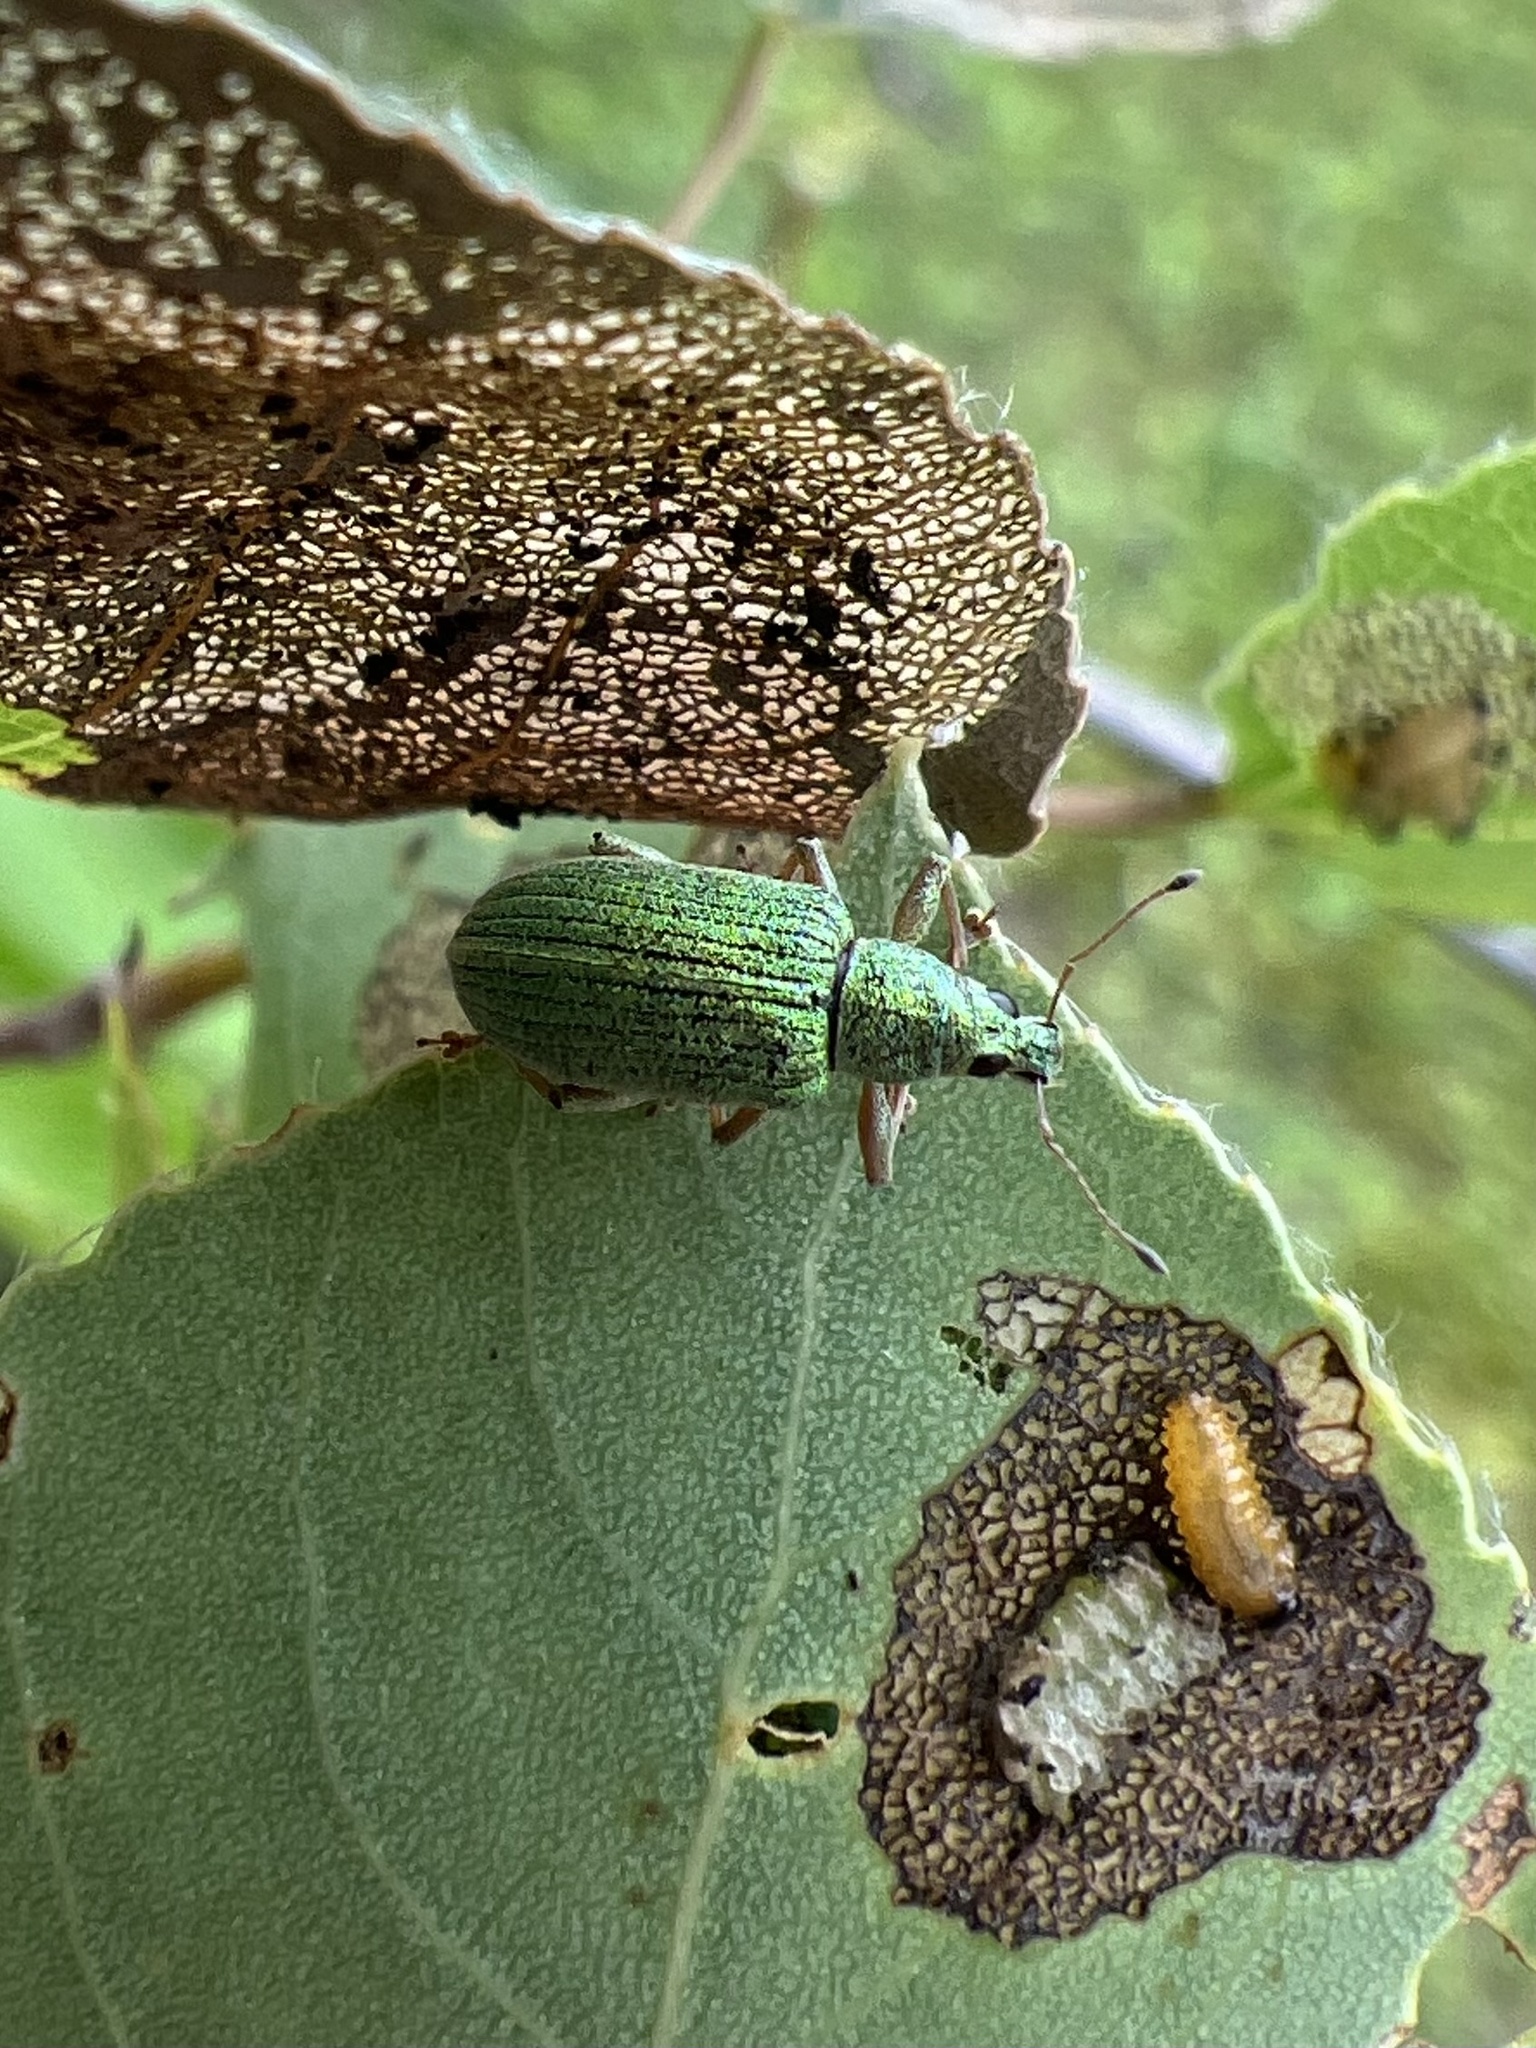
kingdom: Animalia
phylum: Arthropoda
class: Insecta
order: Coleoptera
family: Curculionidae
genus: Polydrusus
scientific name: Polydrusus formosus
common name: Weevil
